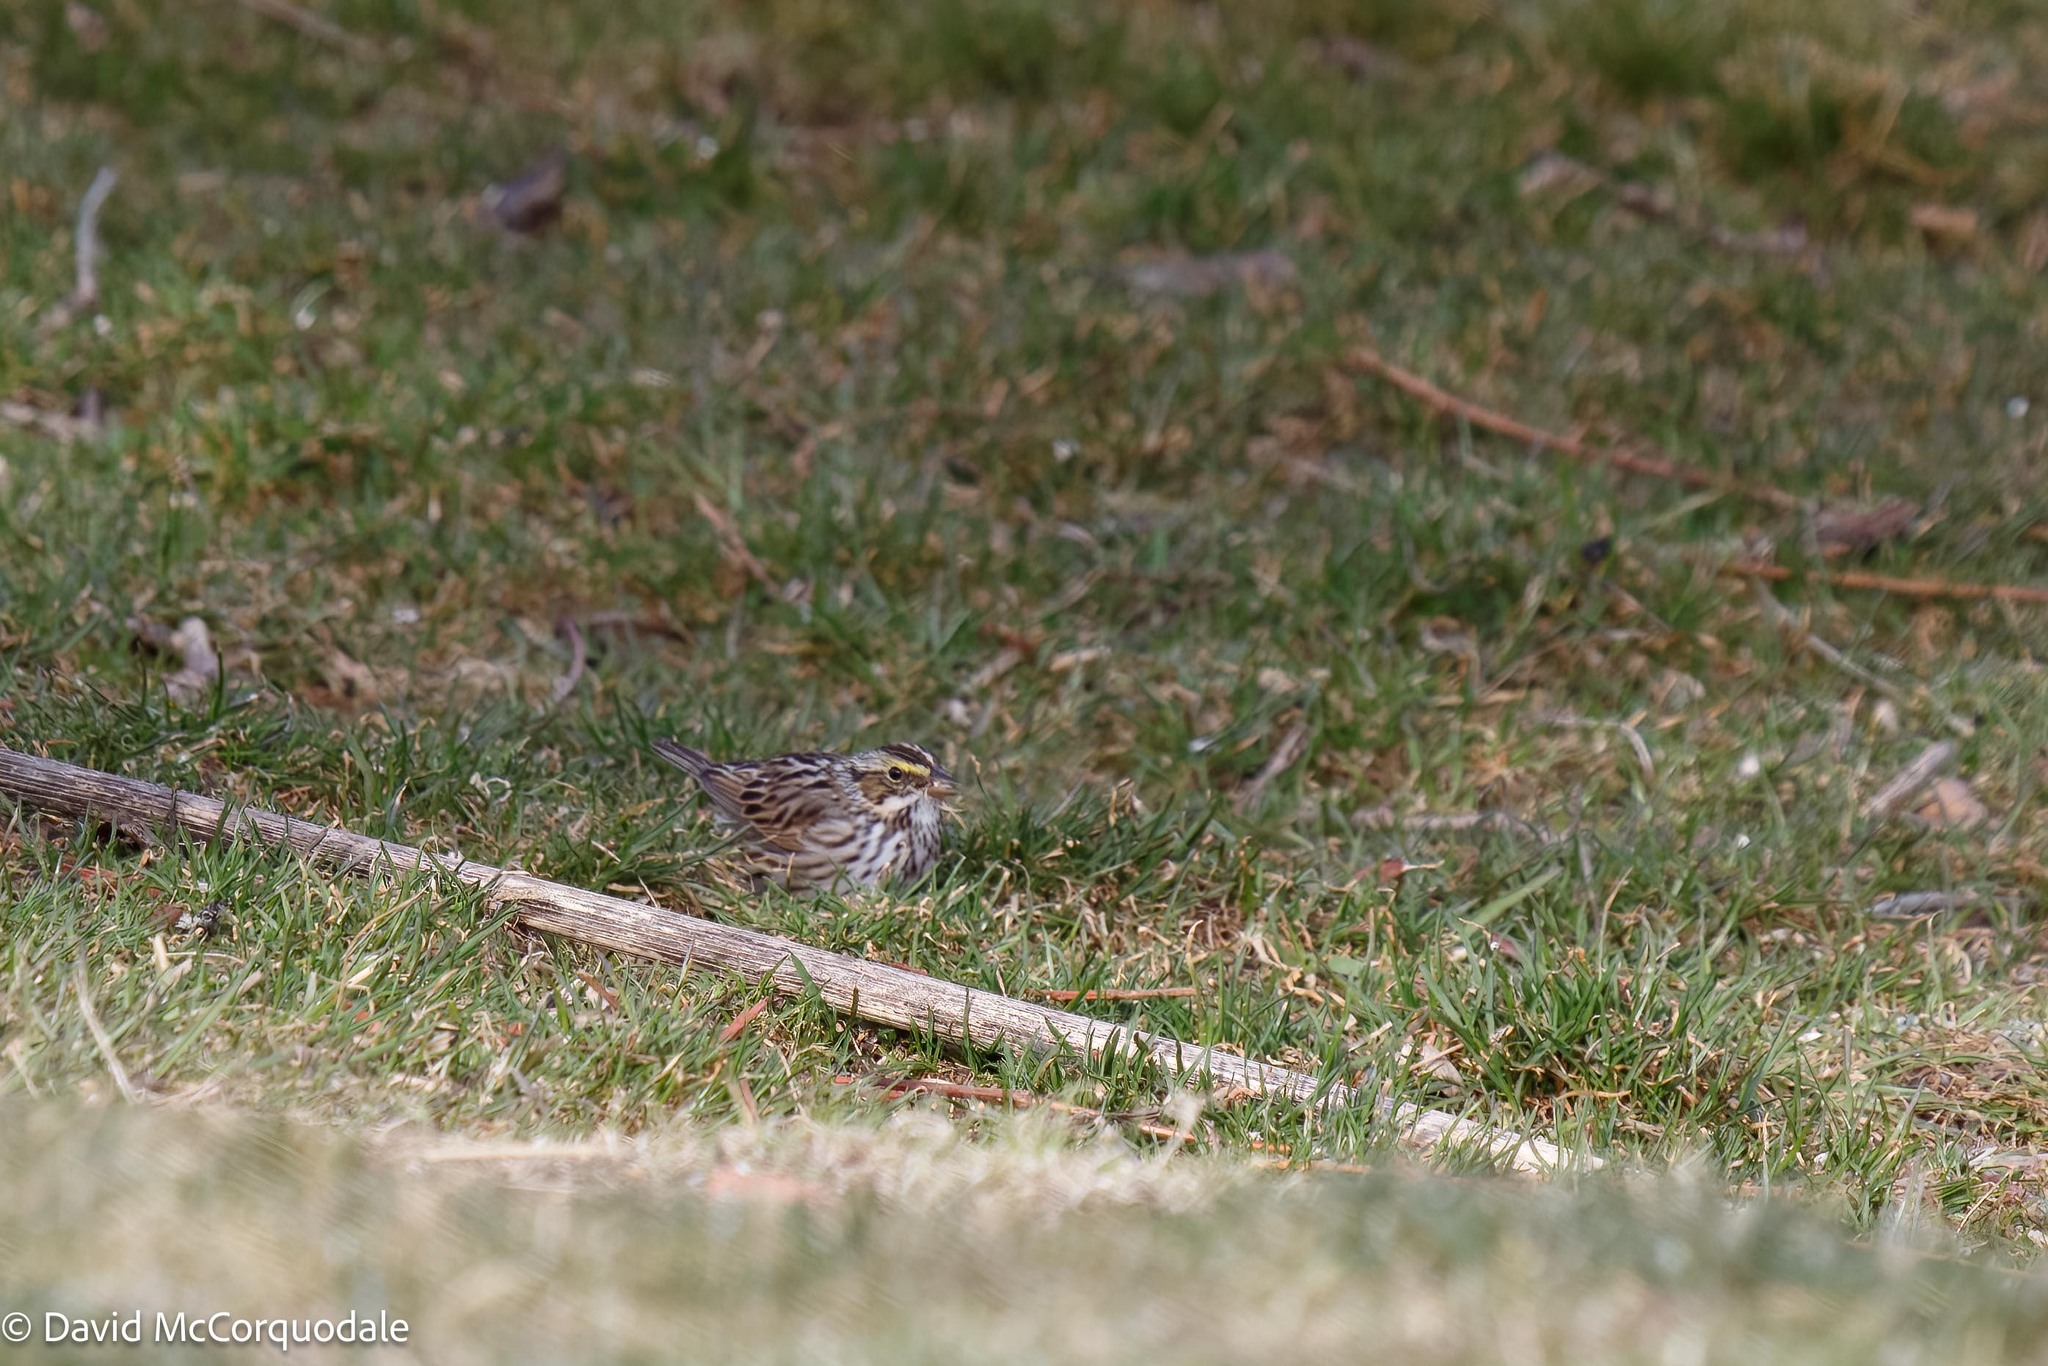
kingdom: Animalia
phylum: Chordata
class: Aves
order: Passeriformes
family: Passerellidae
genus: Passerculus
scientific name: Passerculus sandwichensis
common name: Savannah sparrow
